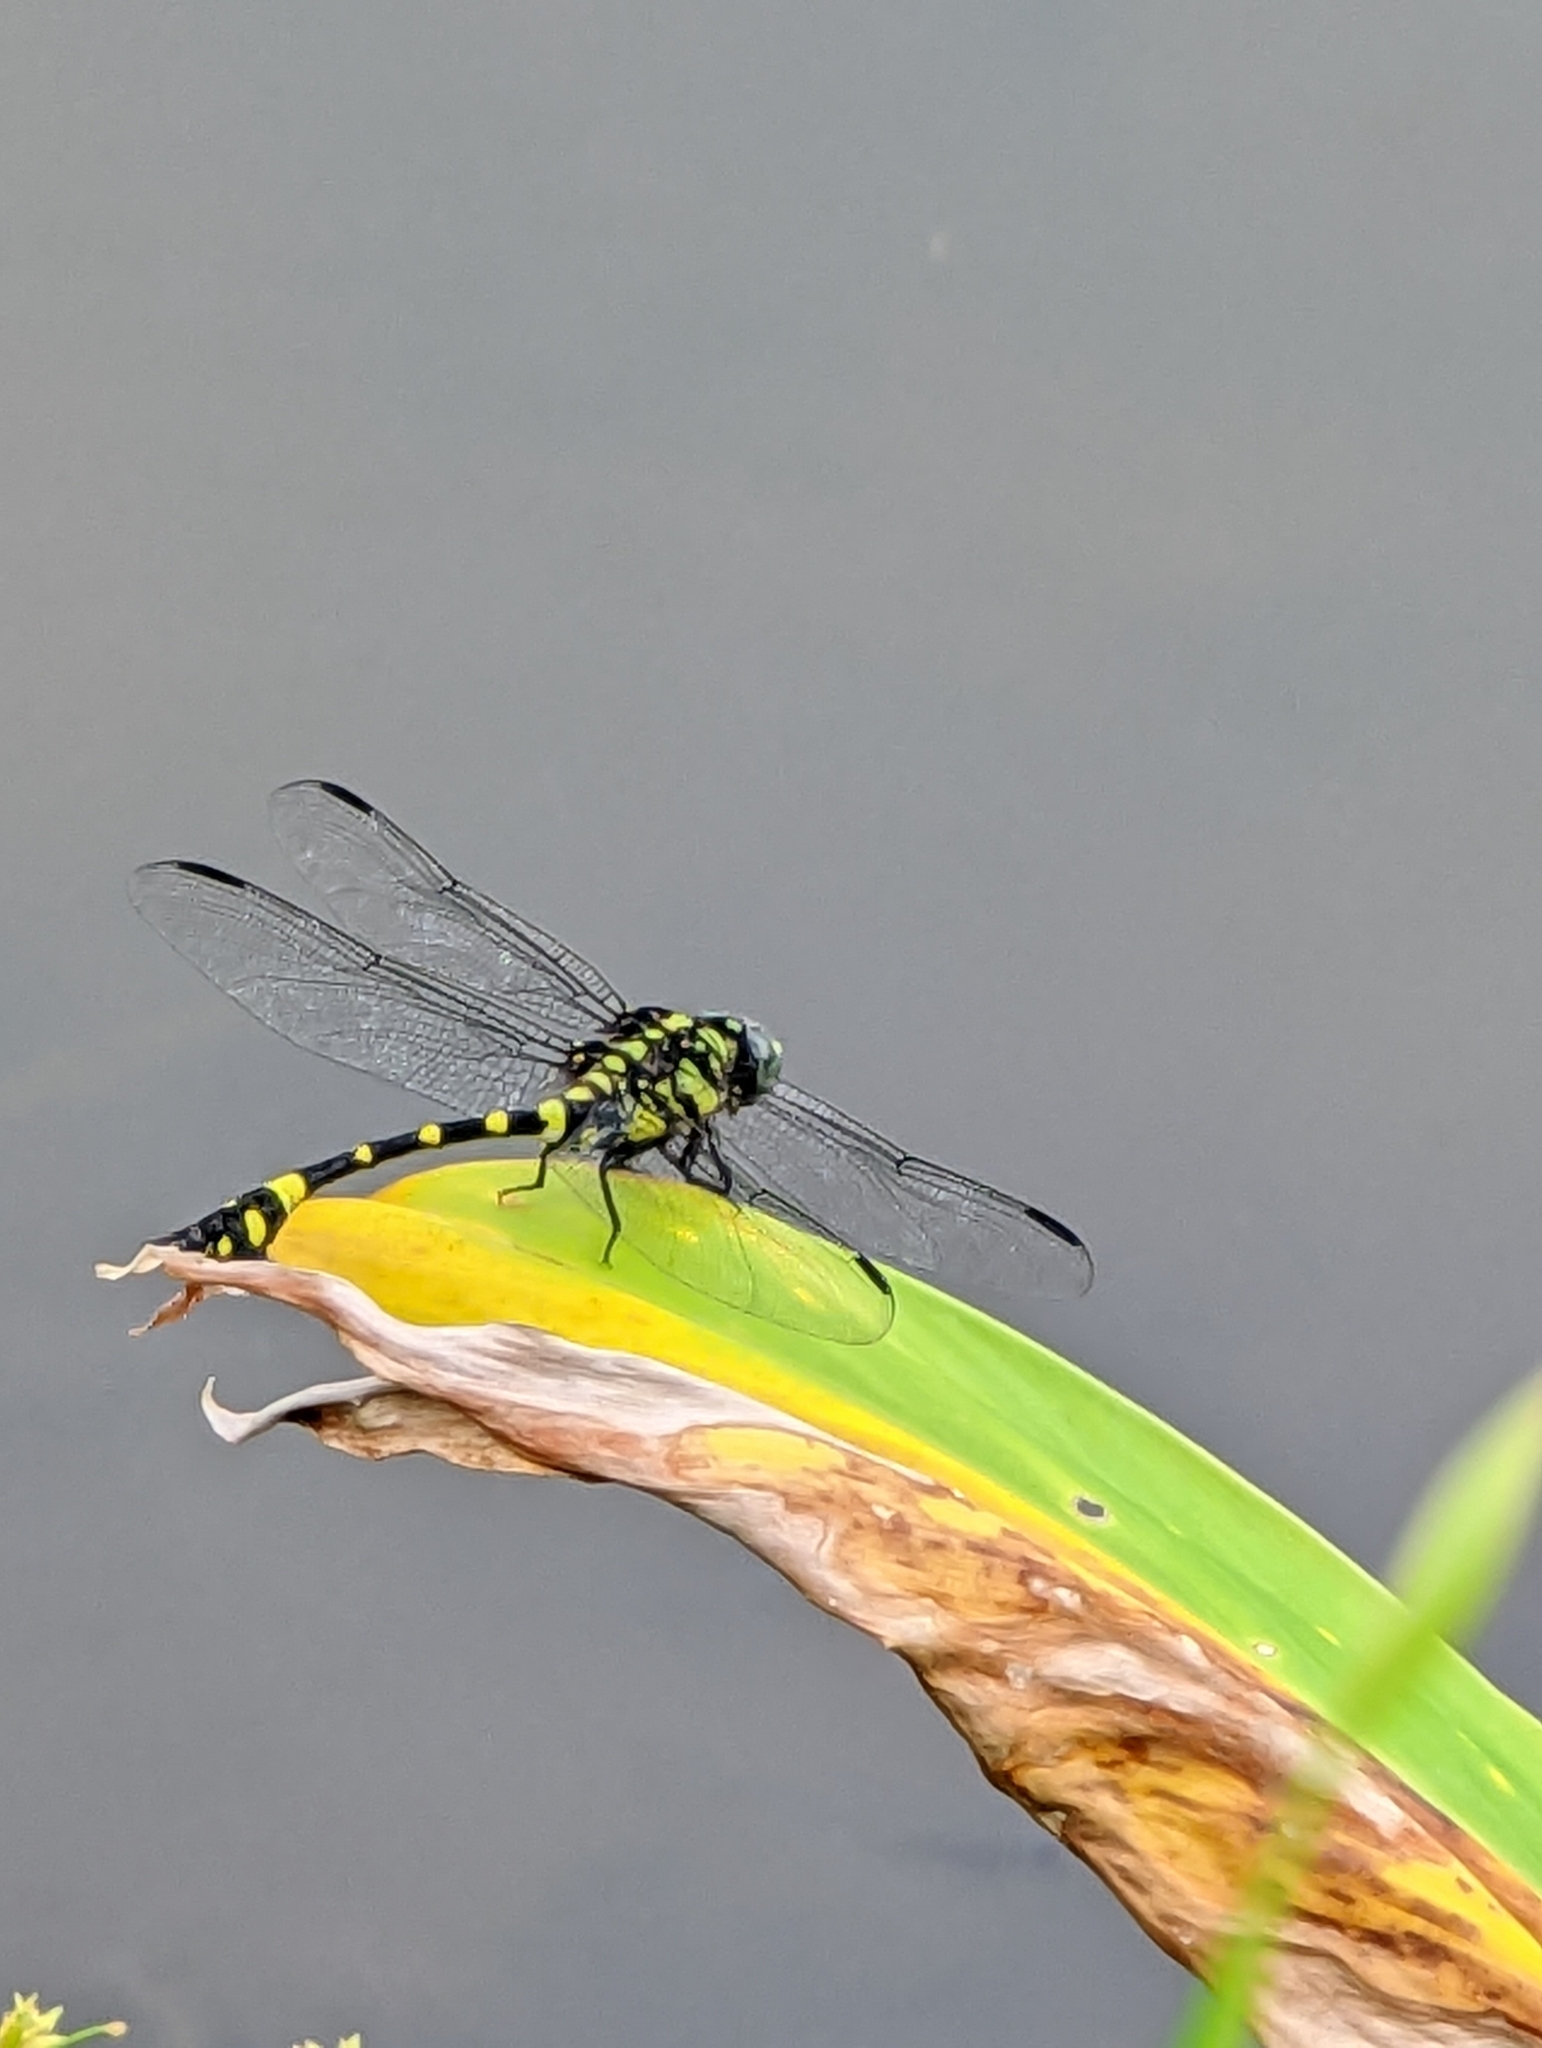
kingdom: Animalia
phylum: Arthropoda
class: Insecta
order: Odonata
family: Gomphidae
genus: Ictinogomphus
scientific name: Ictinogomphus rapax
